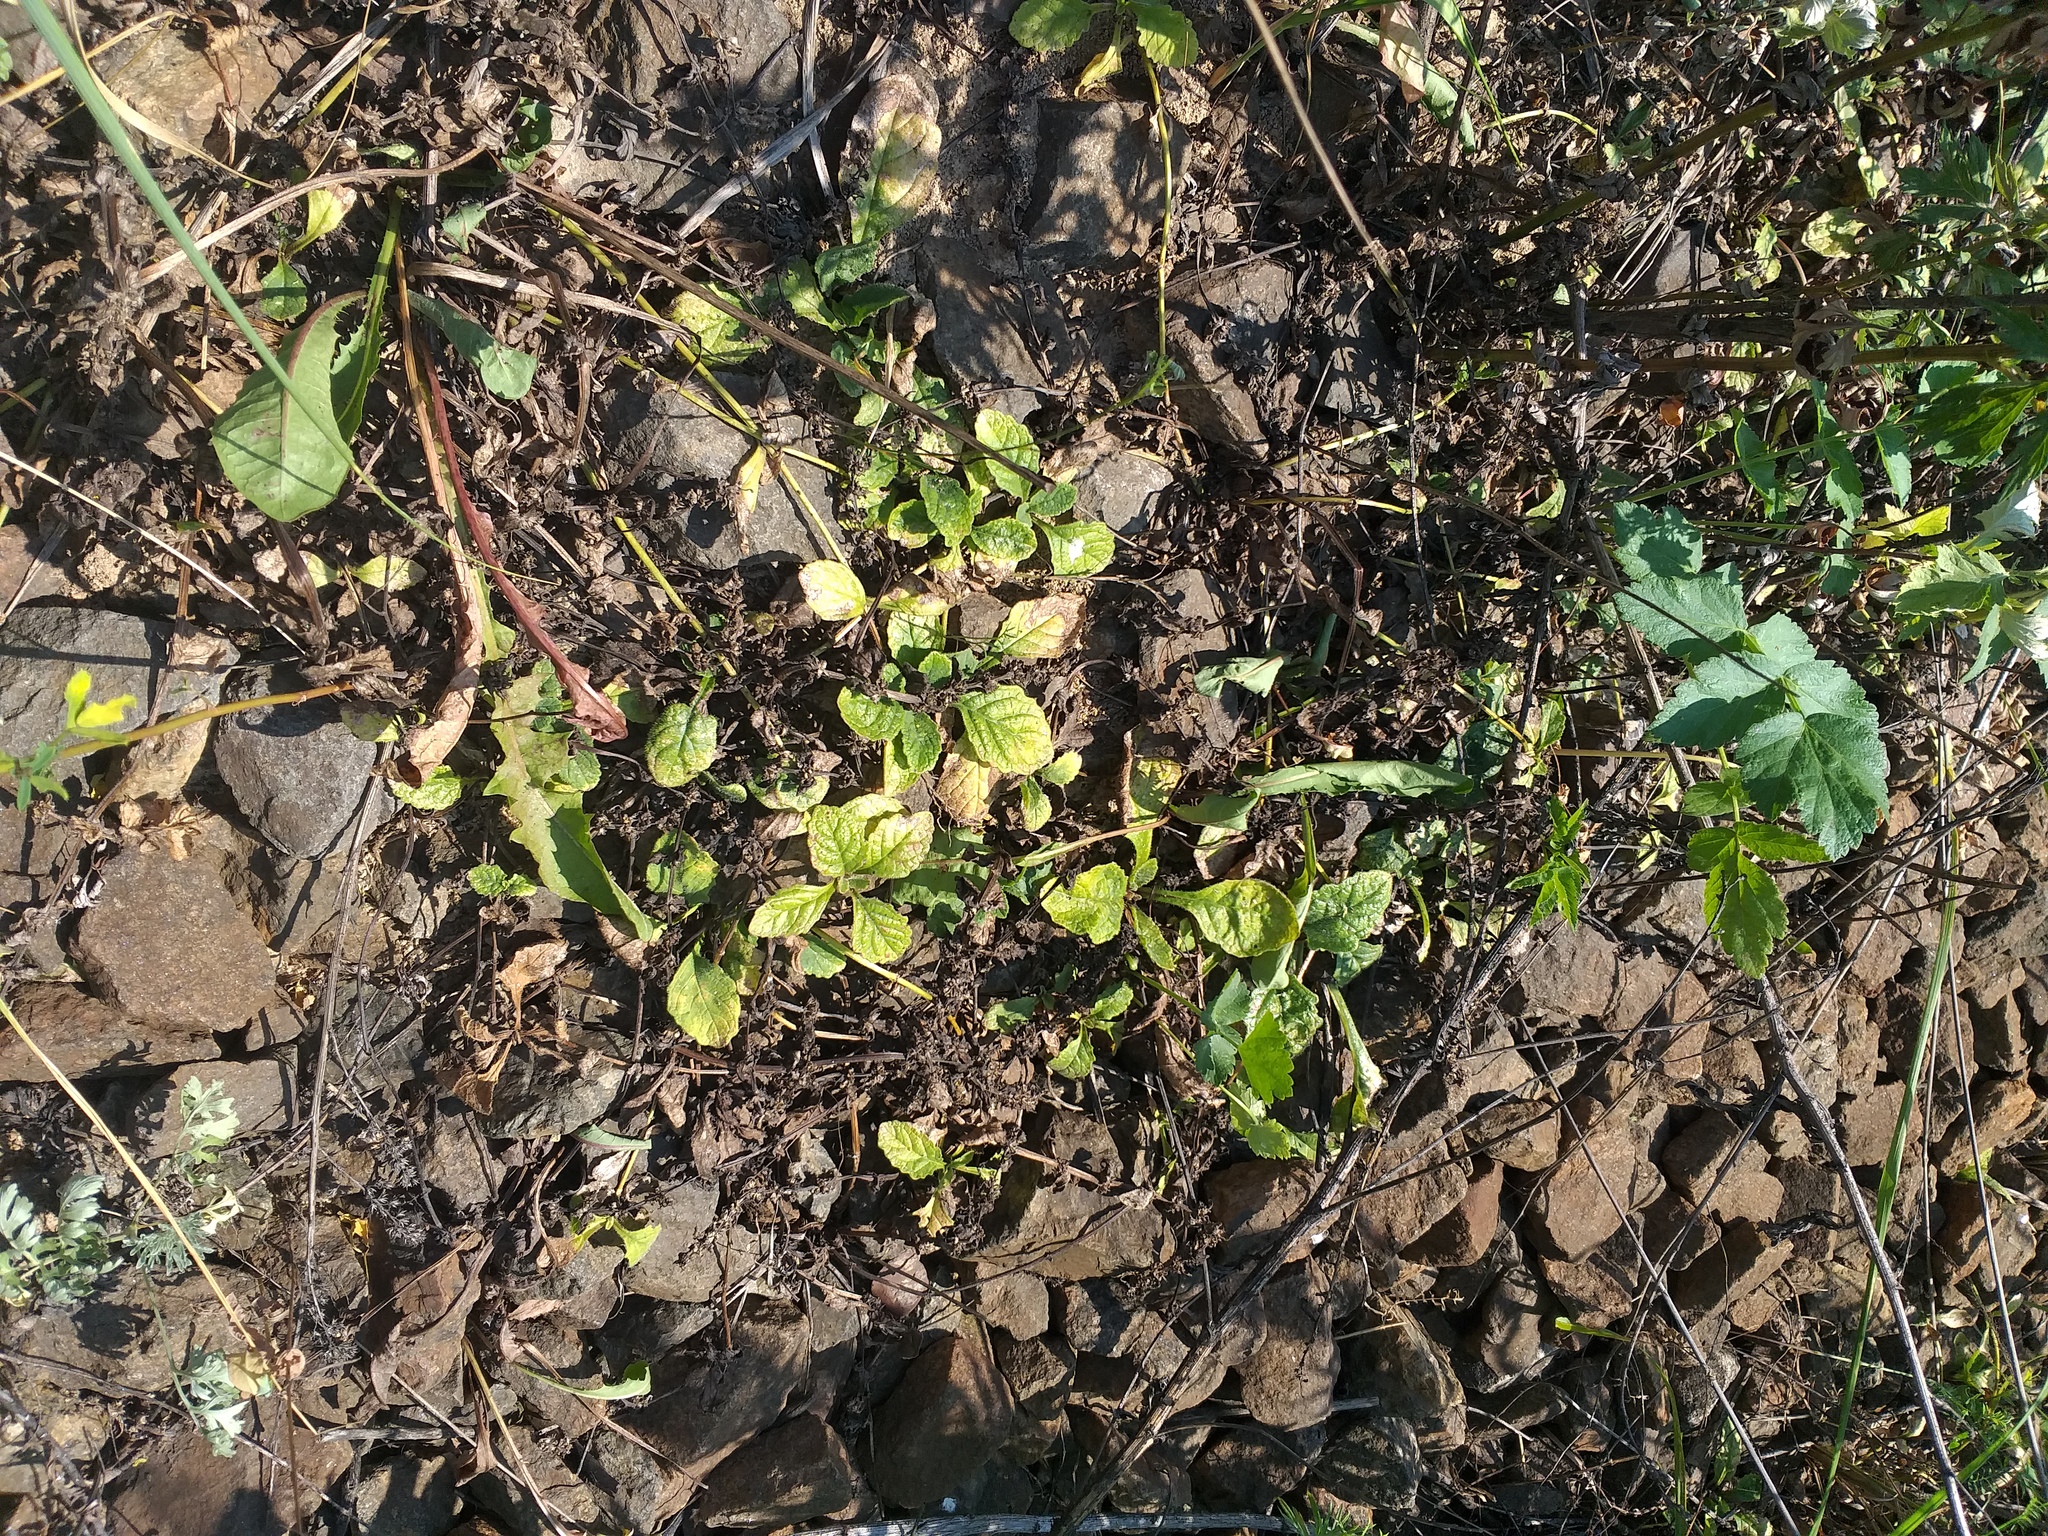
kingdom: Plantae
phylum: Tracheophyta
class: Magnoliopsida
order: Lamiales
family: Lamiaceae
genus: Ajuga
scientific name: Ajuga reptans
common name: Bugle
